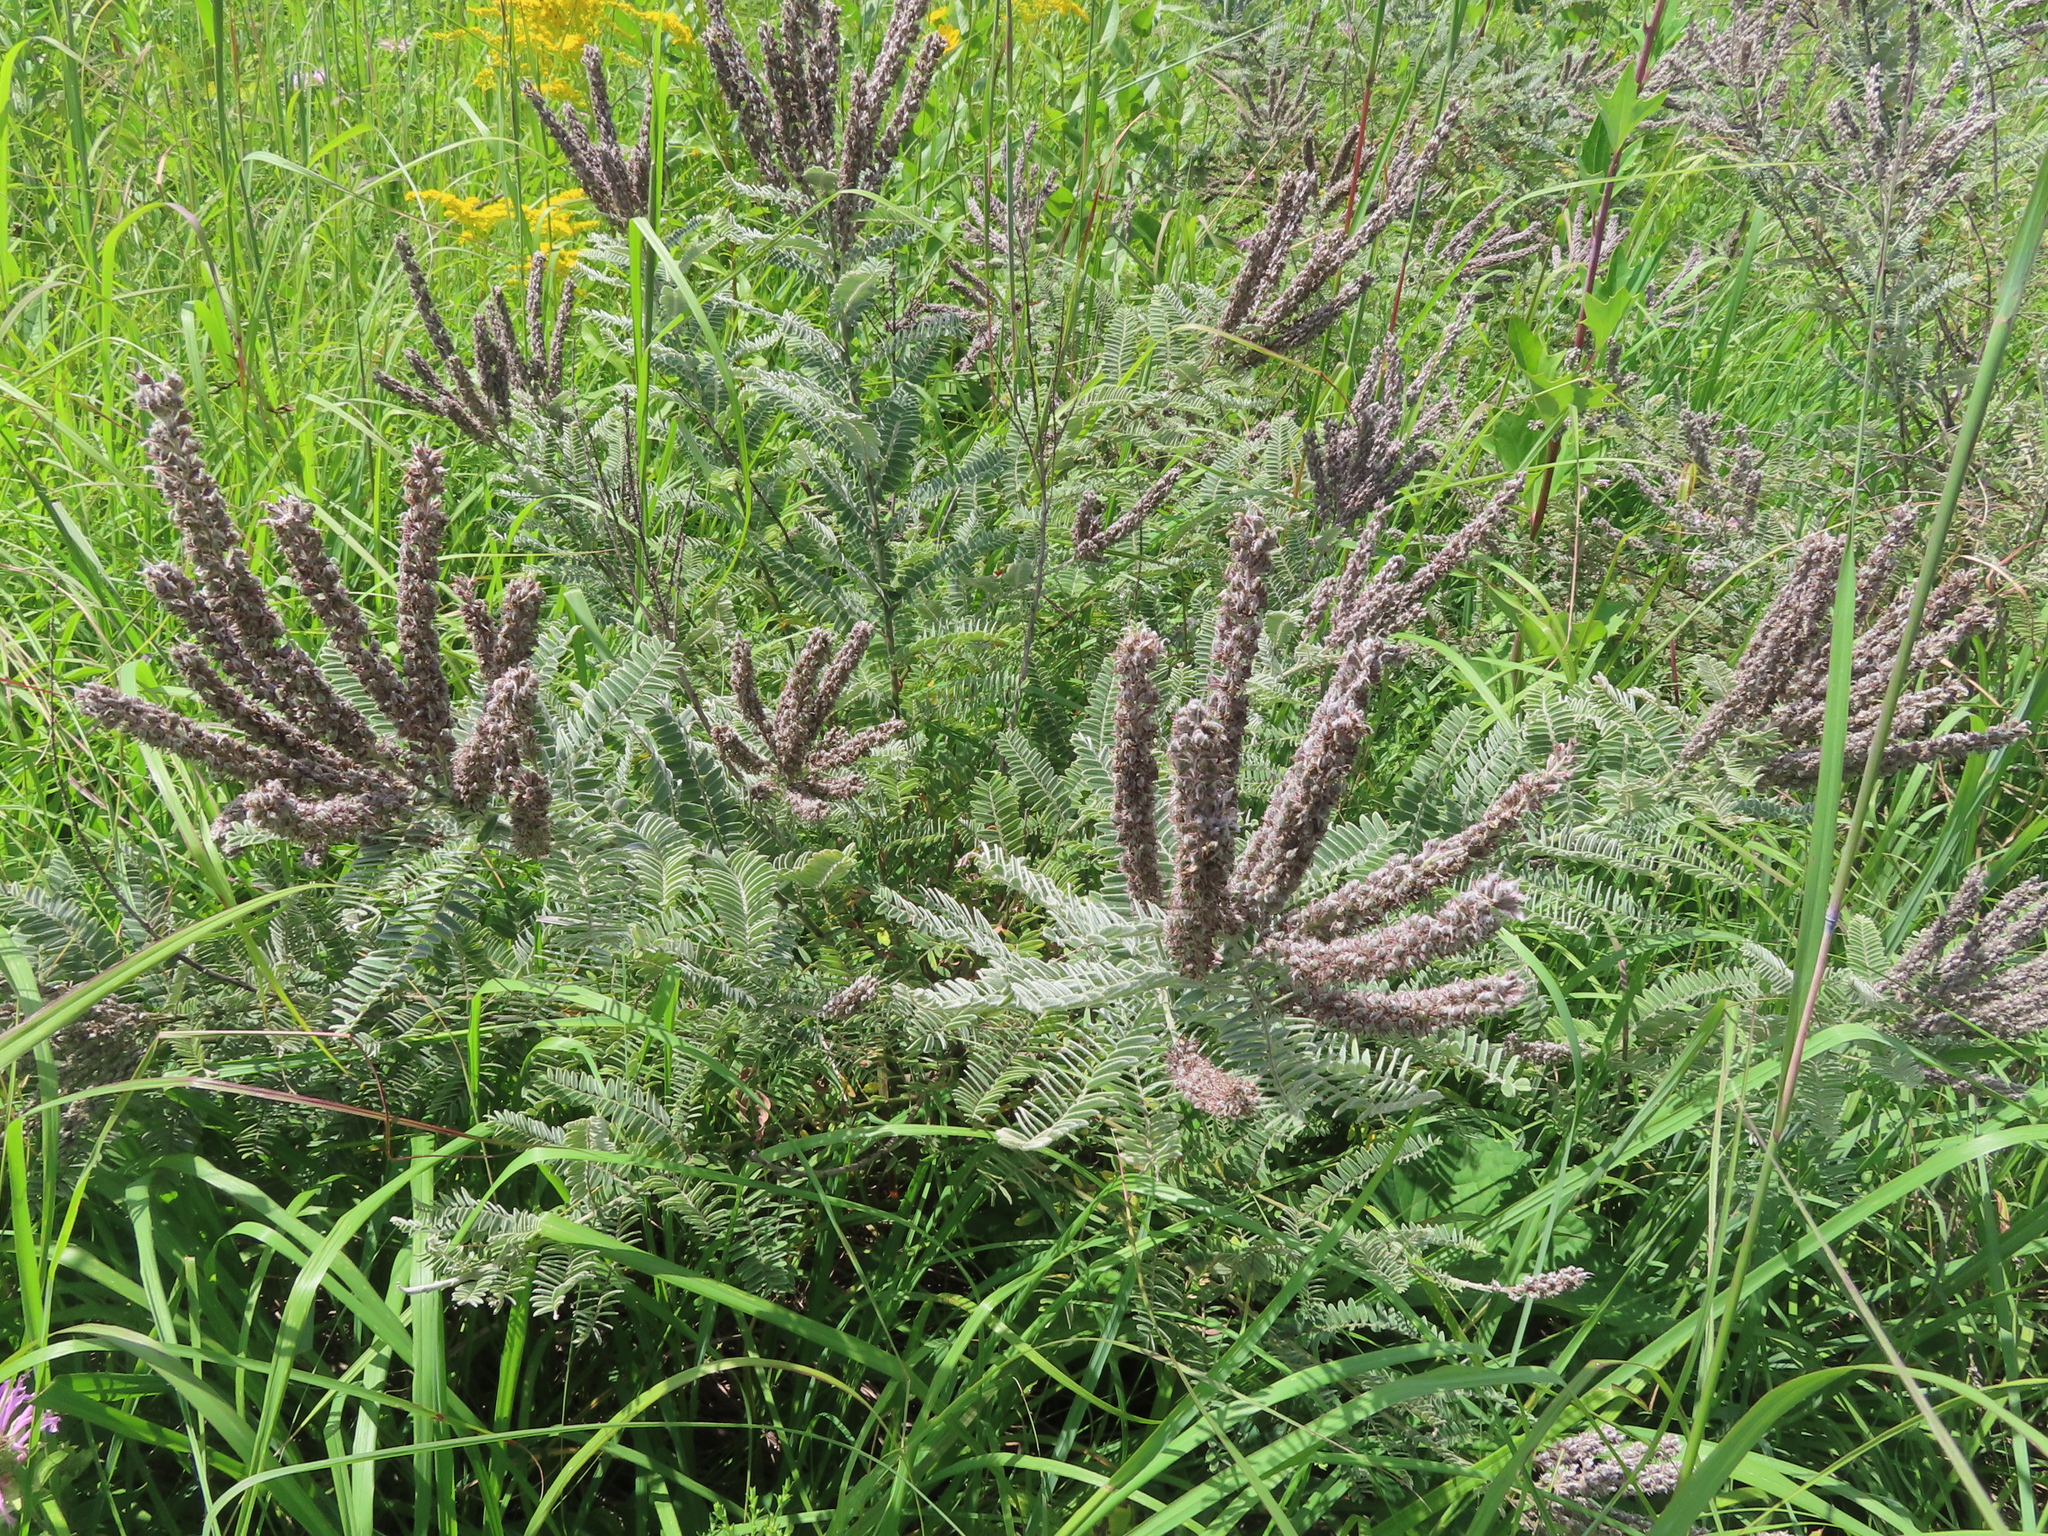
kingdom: Plantae
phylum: Tracheophyta
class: Magnoliopsida
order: Fabales
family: Fabaceae
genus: Amorpha
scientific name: Amorpha canescens
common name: Leadplant
